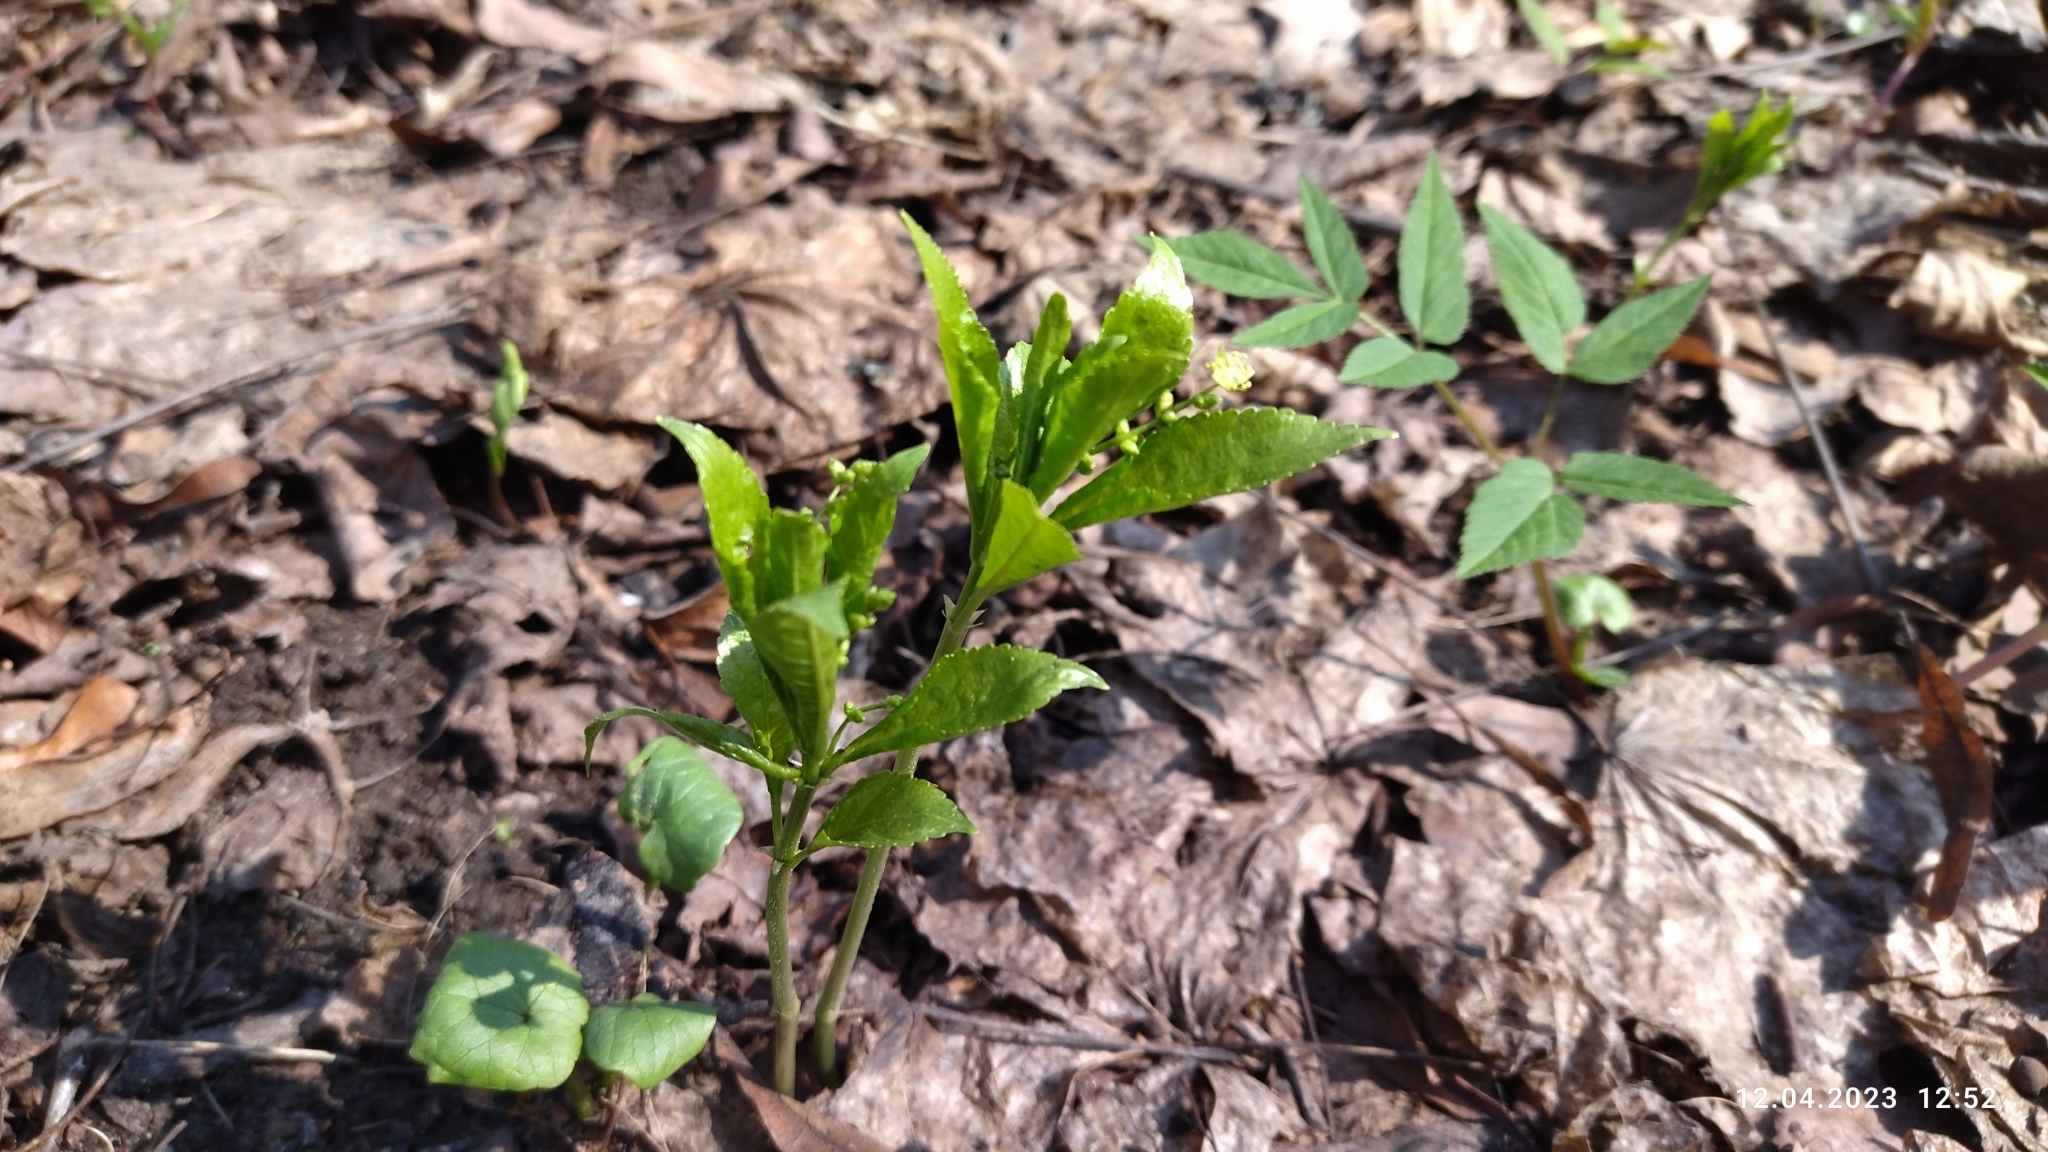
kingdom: Plantae
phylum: Tracheophyta
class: Magnoliopsida
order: Malpighiales
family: Euphorbiaceae
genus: Mercurialis
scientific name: Mercurialis perennis
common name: Dog mercury
